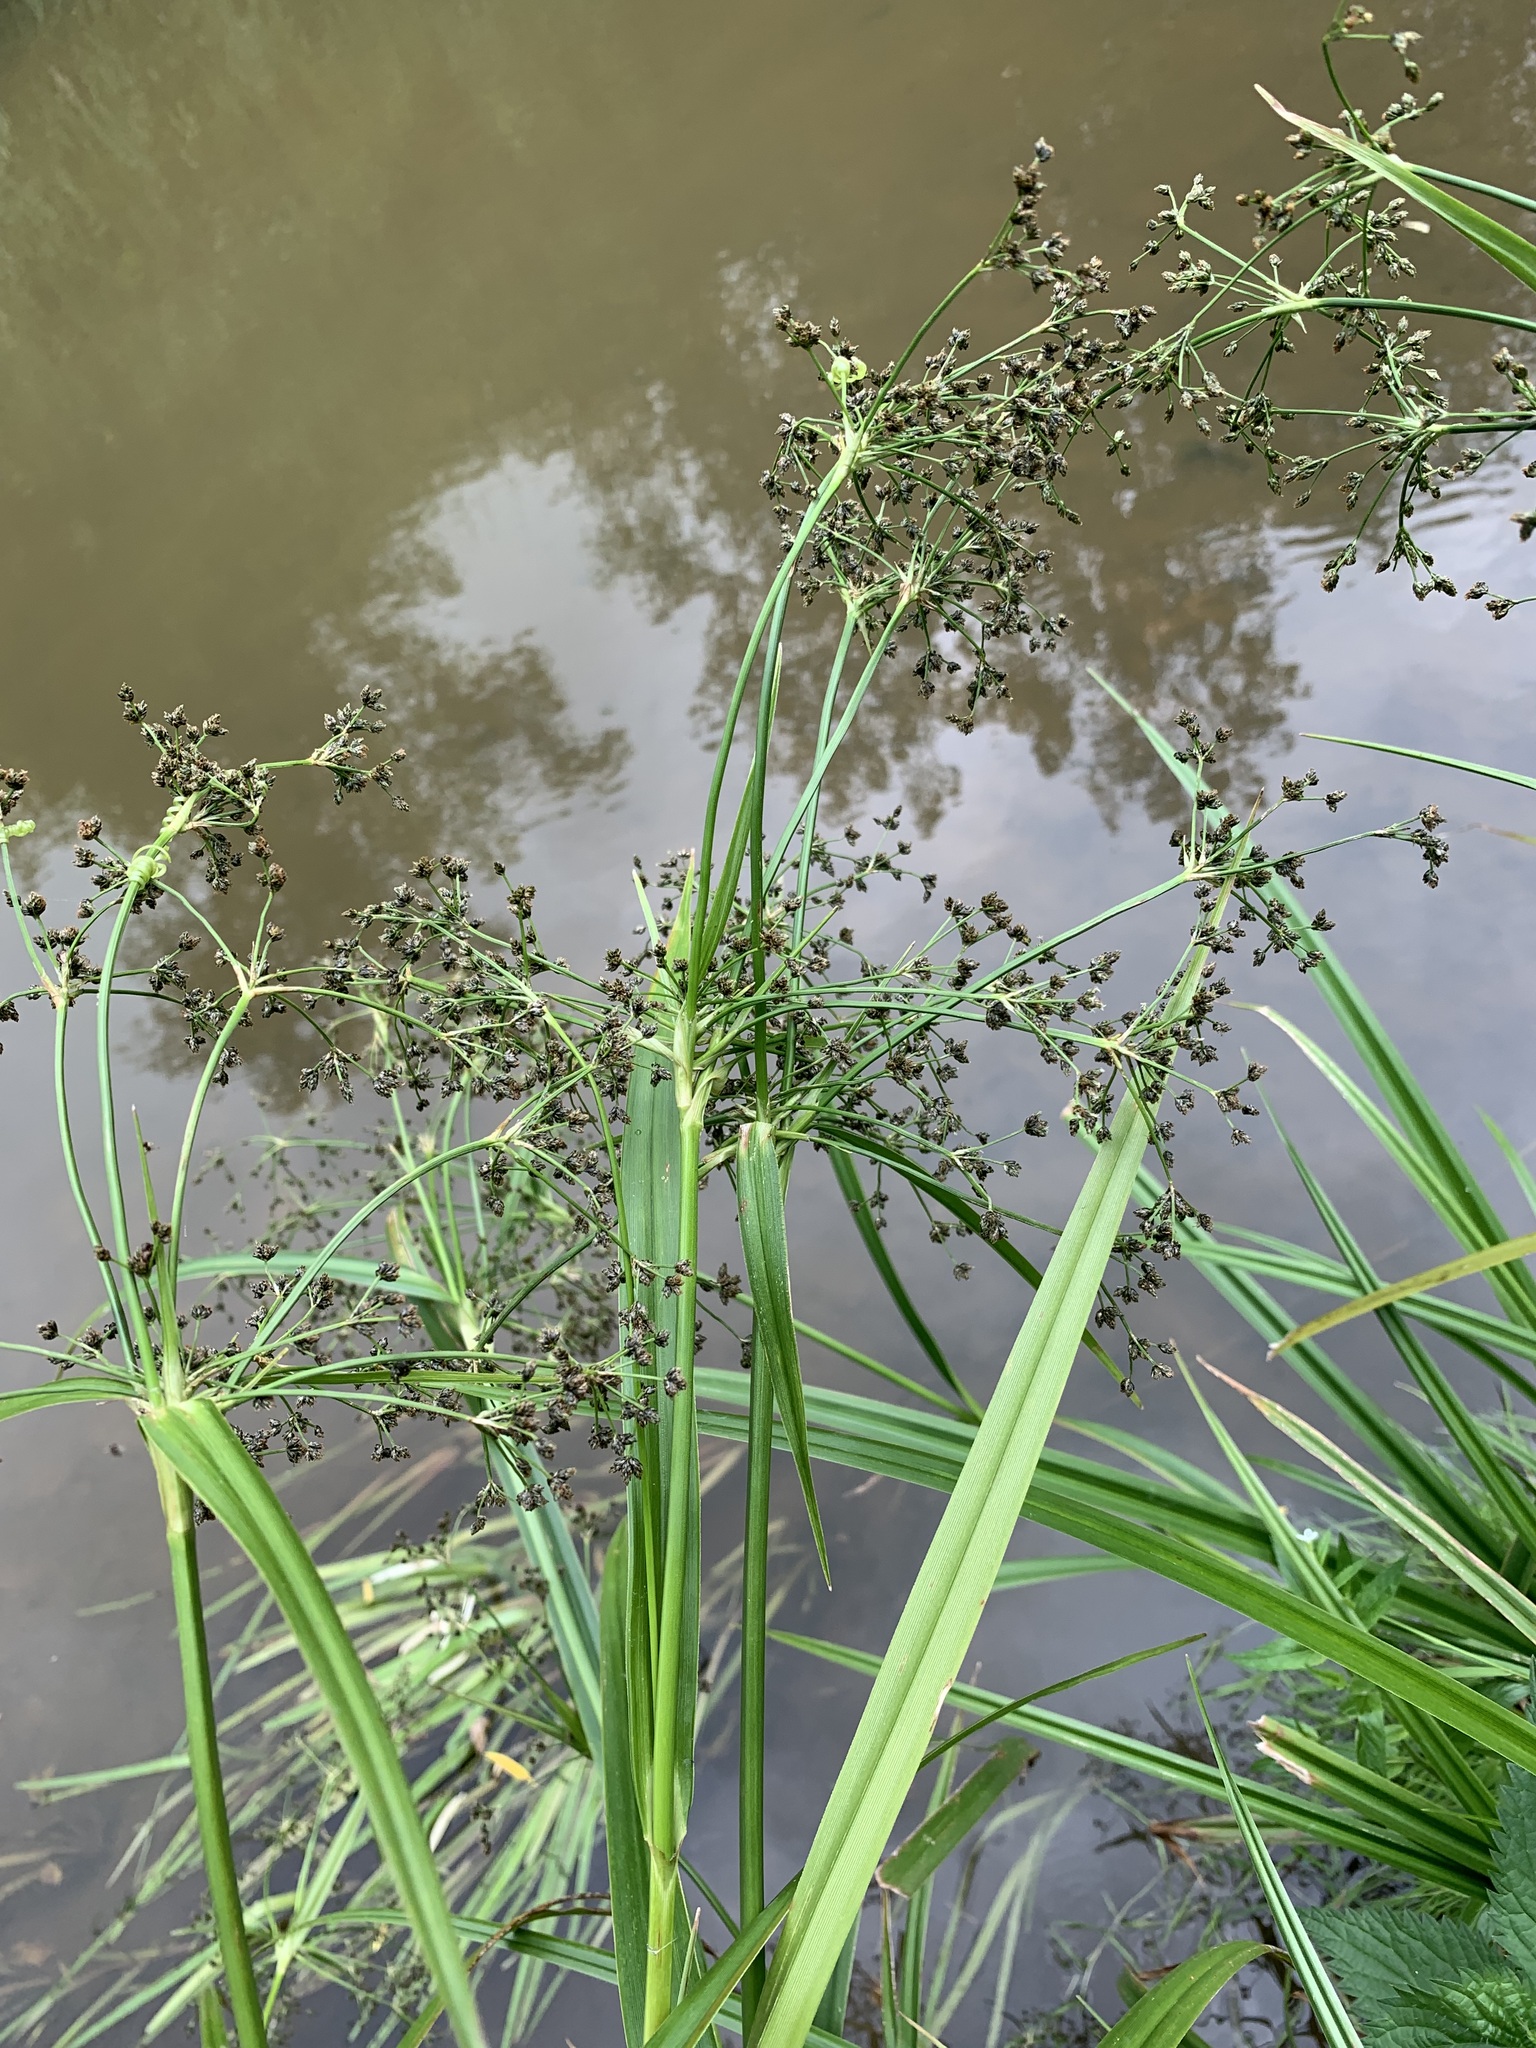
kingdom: Plantae
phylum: Tracheophyta
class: Liliopsida
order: Poales
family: Cyperaceae
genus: Scirpus
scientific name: Scirpus sylvaticus
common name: Wood club-rush
